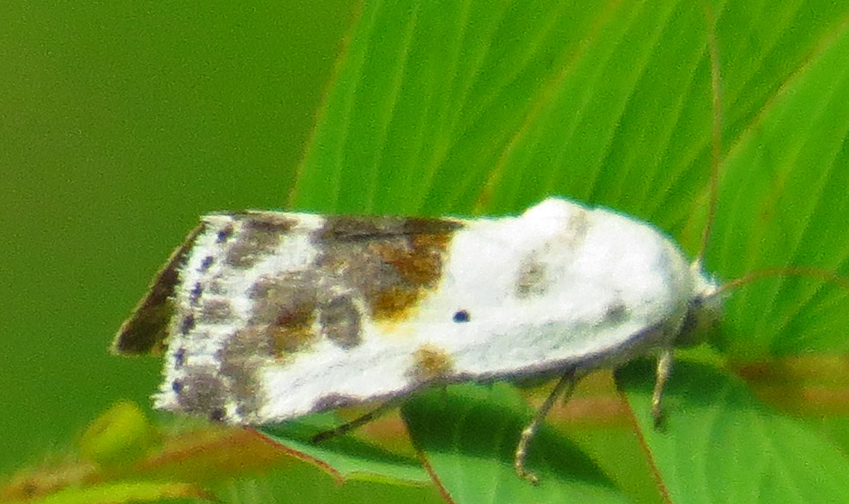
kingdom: Animalia
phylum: Arthropoda
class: Insecta
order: Lepidoptera
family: Noctuidae
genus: Acontia
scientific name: Acontia candefacta
